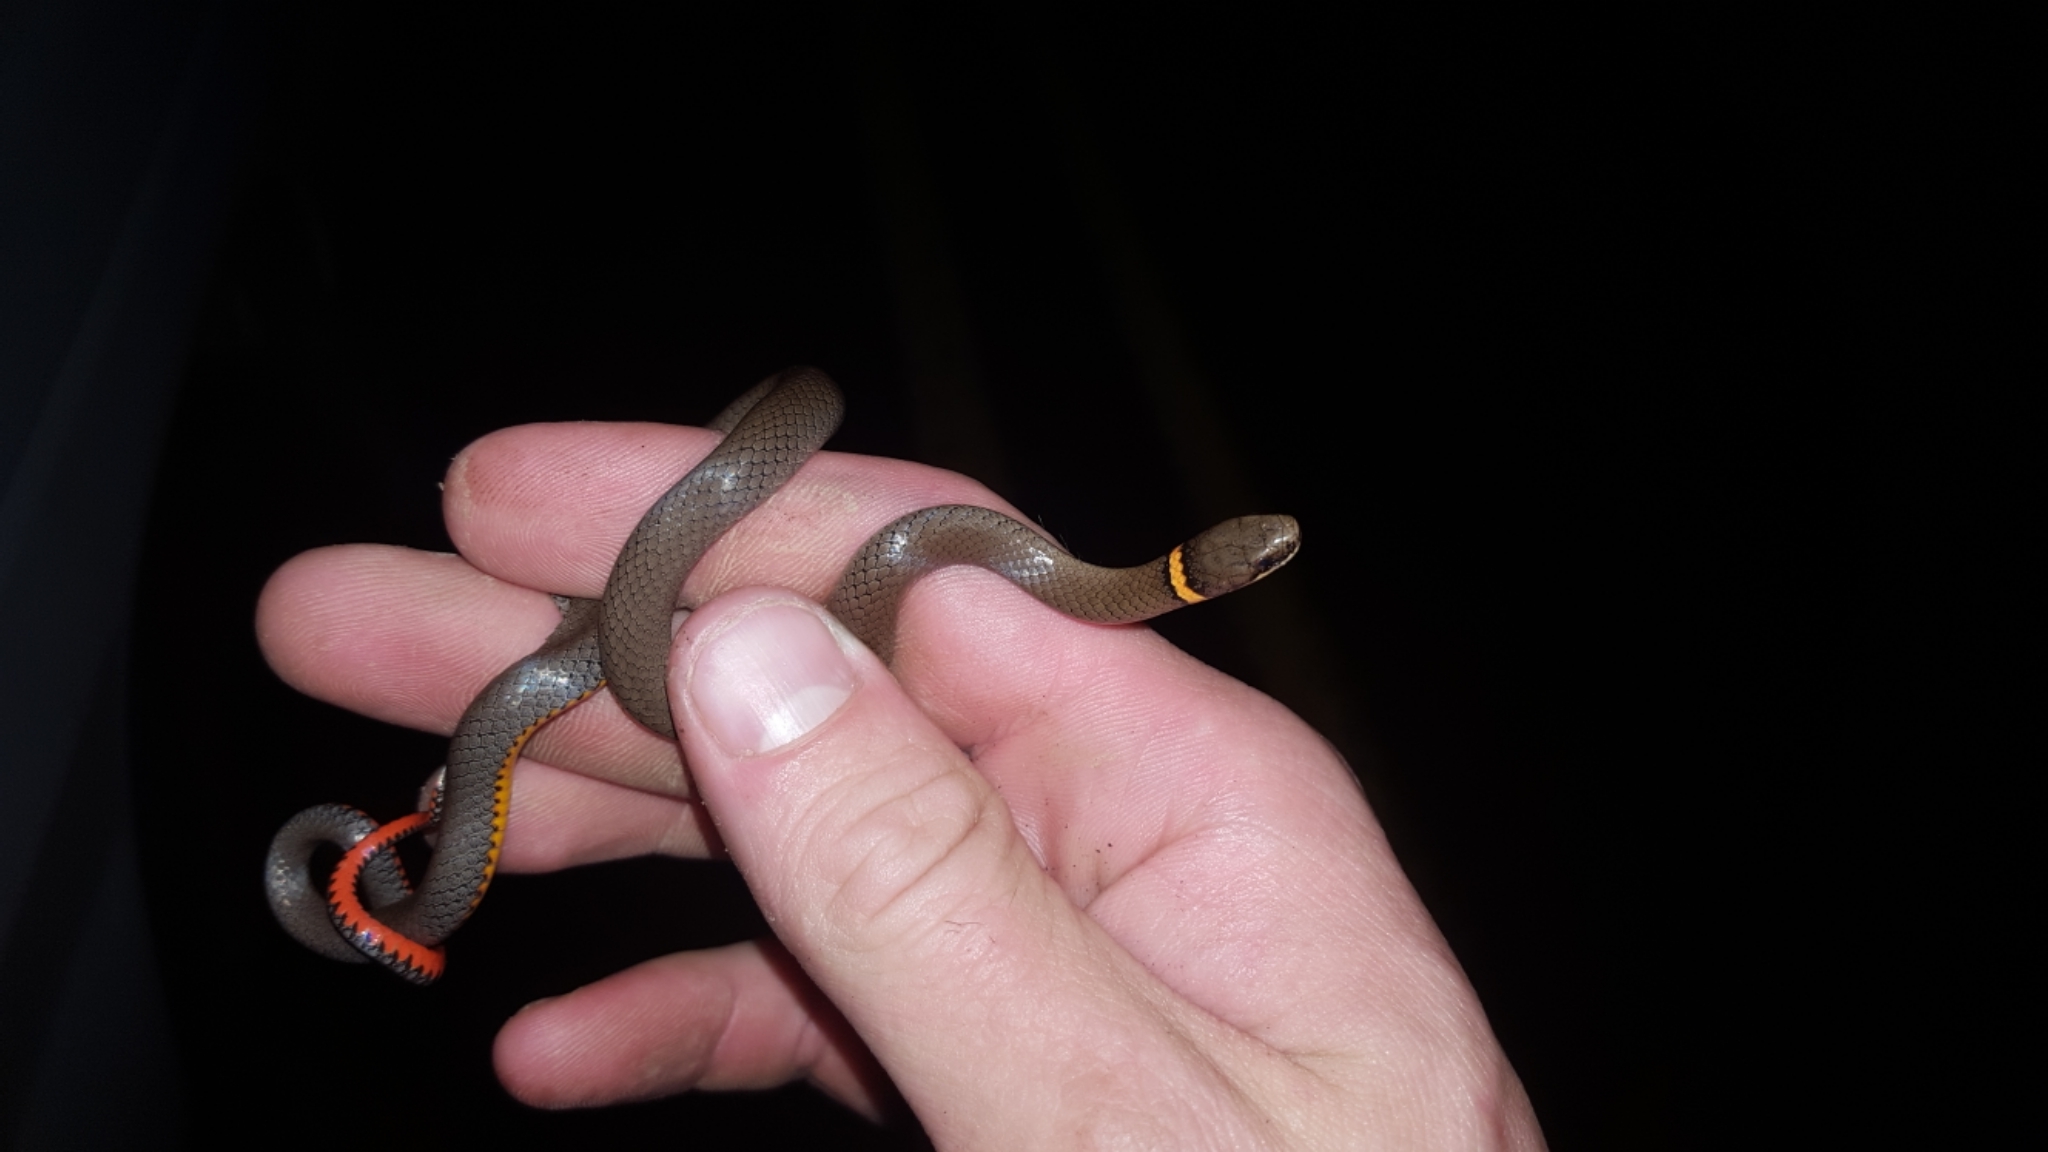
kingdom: Animalia
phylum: Chordata
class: Squamata
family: Colubridae
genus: Diadophis
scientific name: Diadophis punctatus
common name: Ringneck snake
